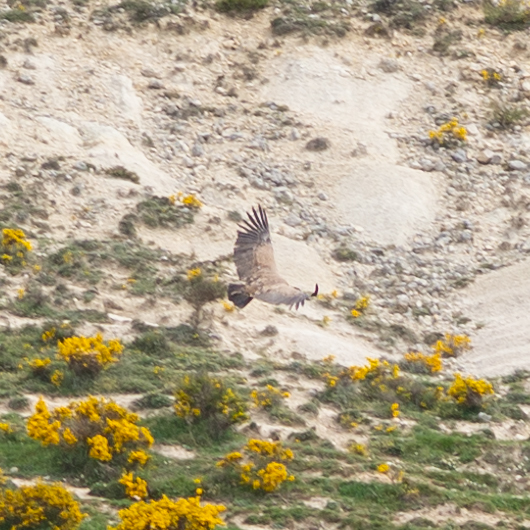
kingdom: Animalia
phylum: Chordata
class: Aves
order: Accipitriformes
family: Accipitridae
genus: Gyps
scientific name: Gyps fulvus
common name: Griffon vulture
